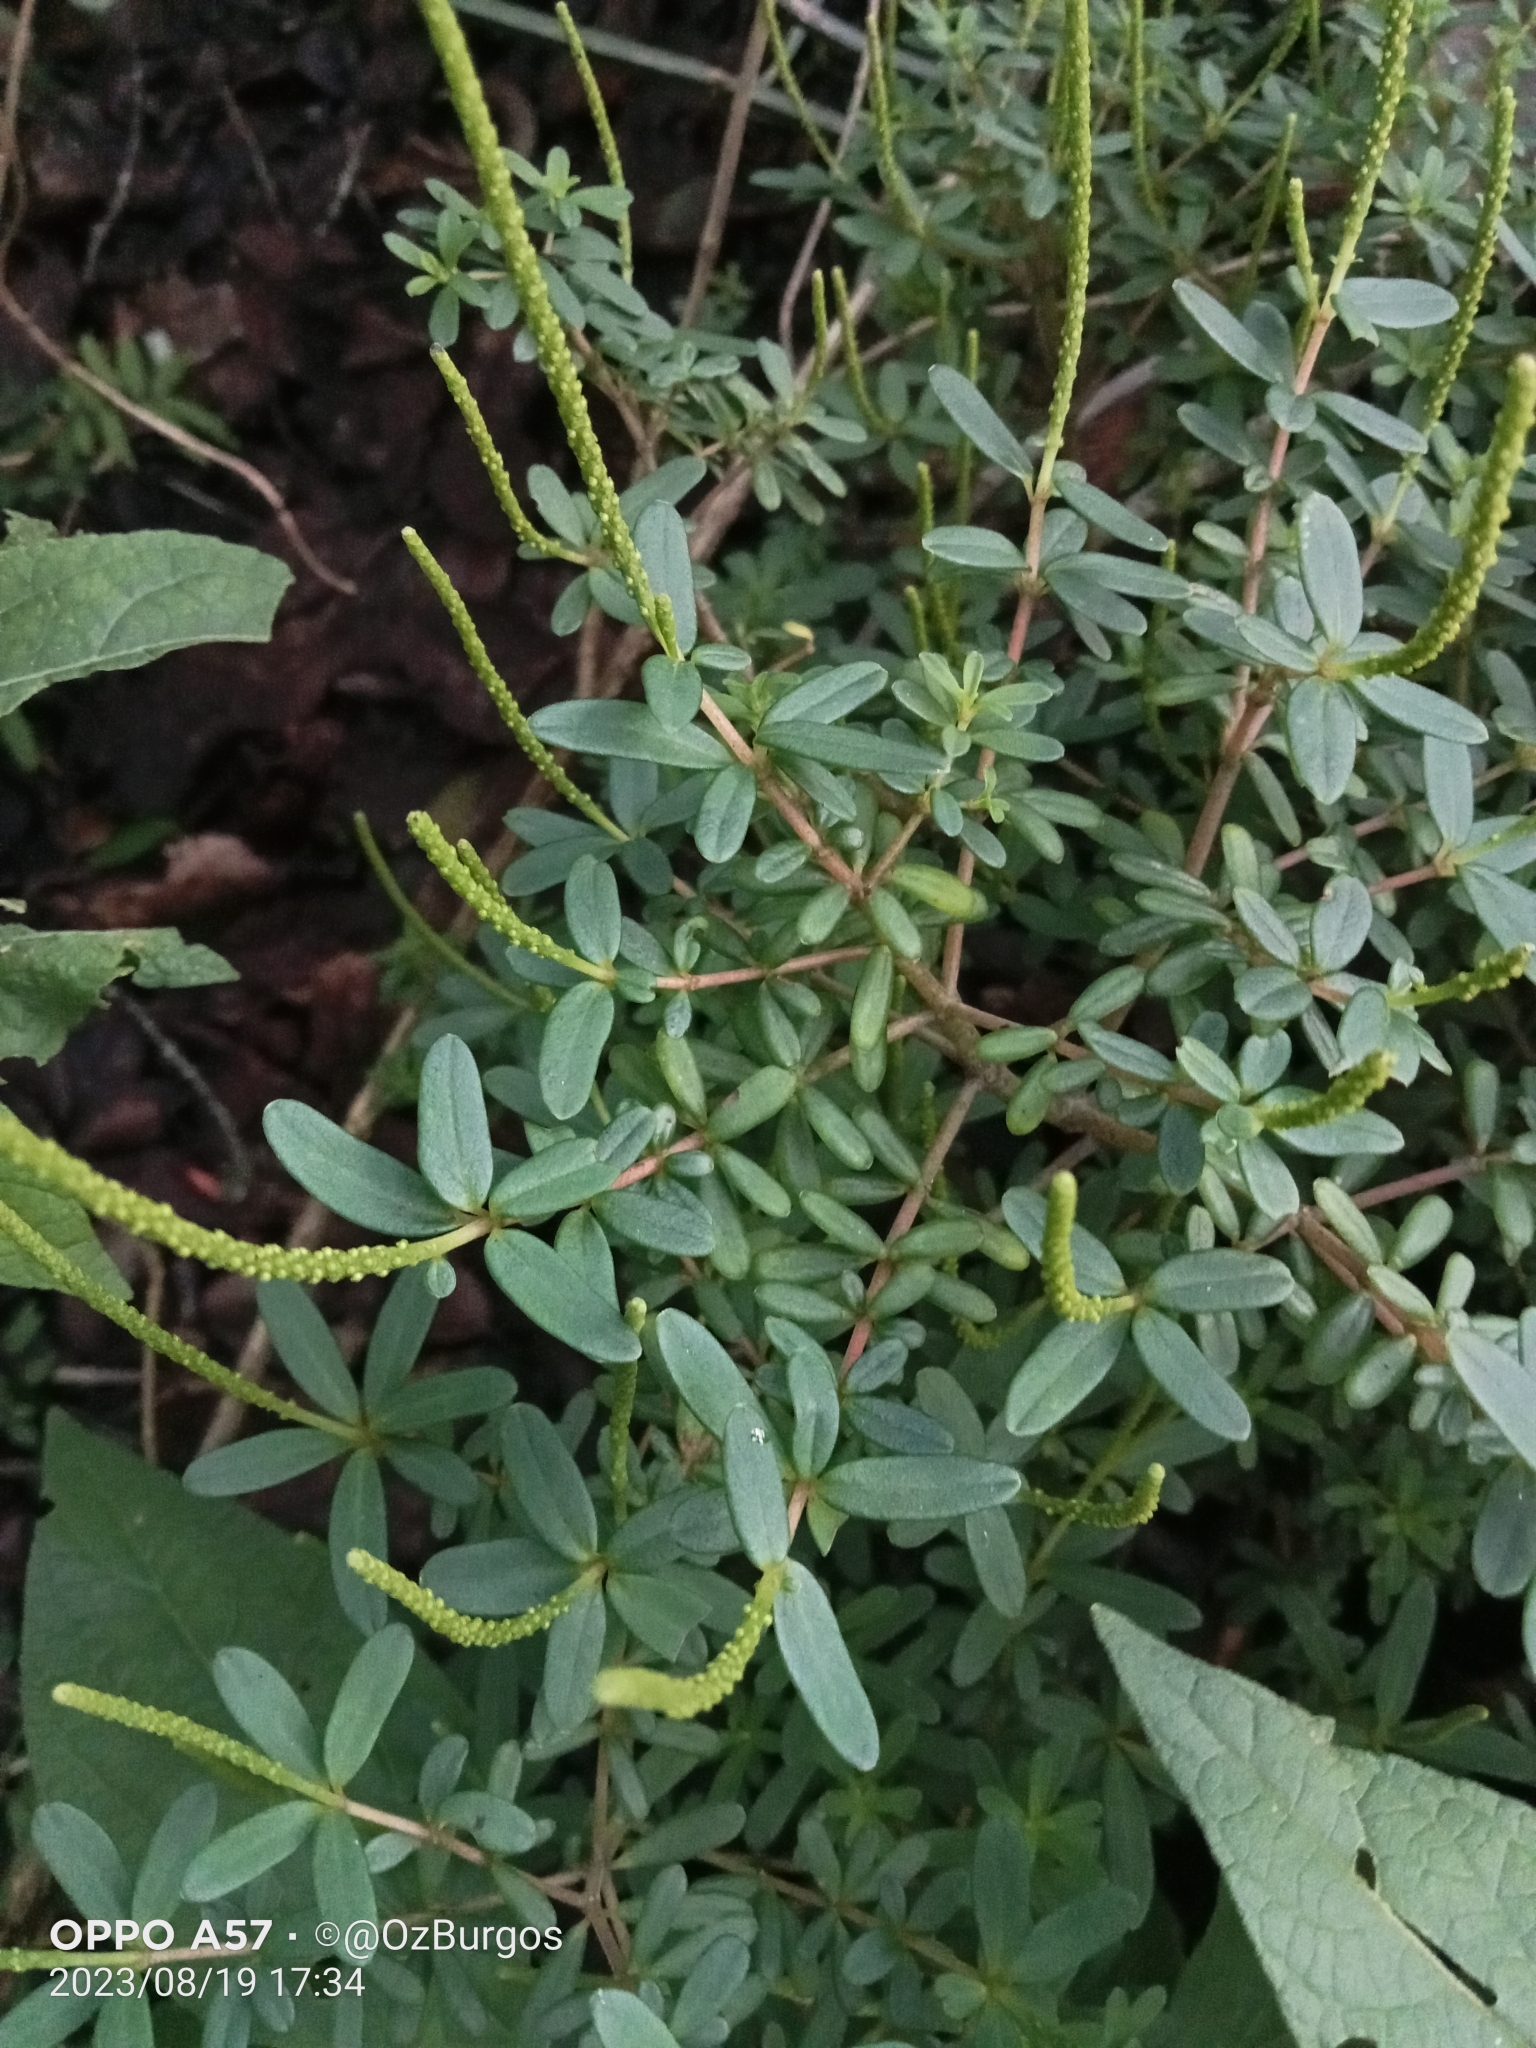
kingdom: Plantae
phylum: Tracheophyta
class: Magnoliopsida
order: Piperales
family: Piperaceae
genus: Peperomia
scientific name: Peperomia leptophylla
